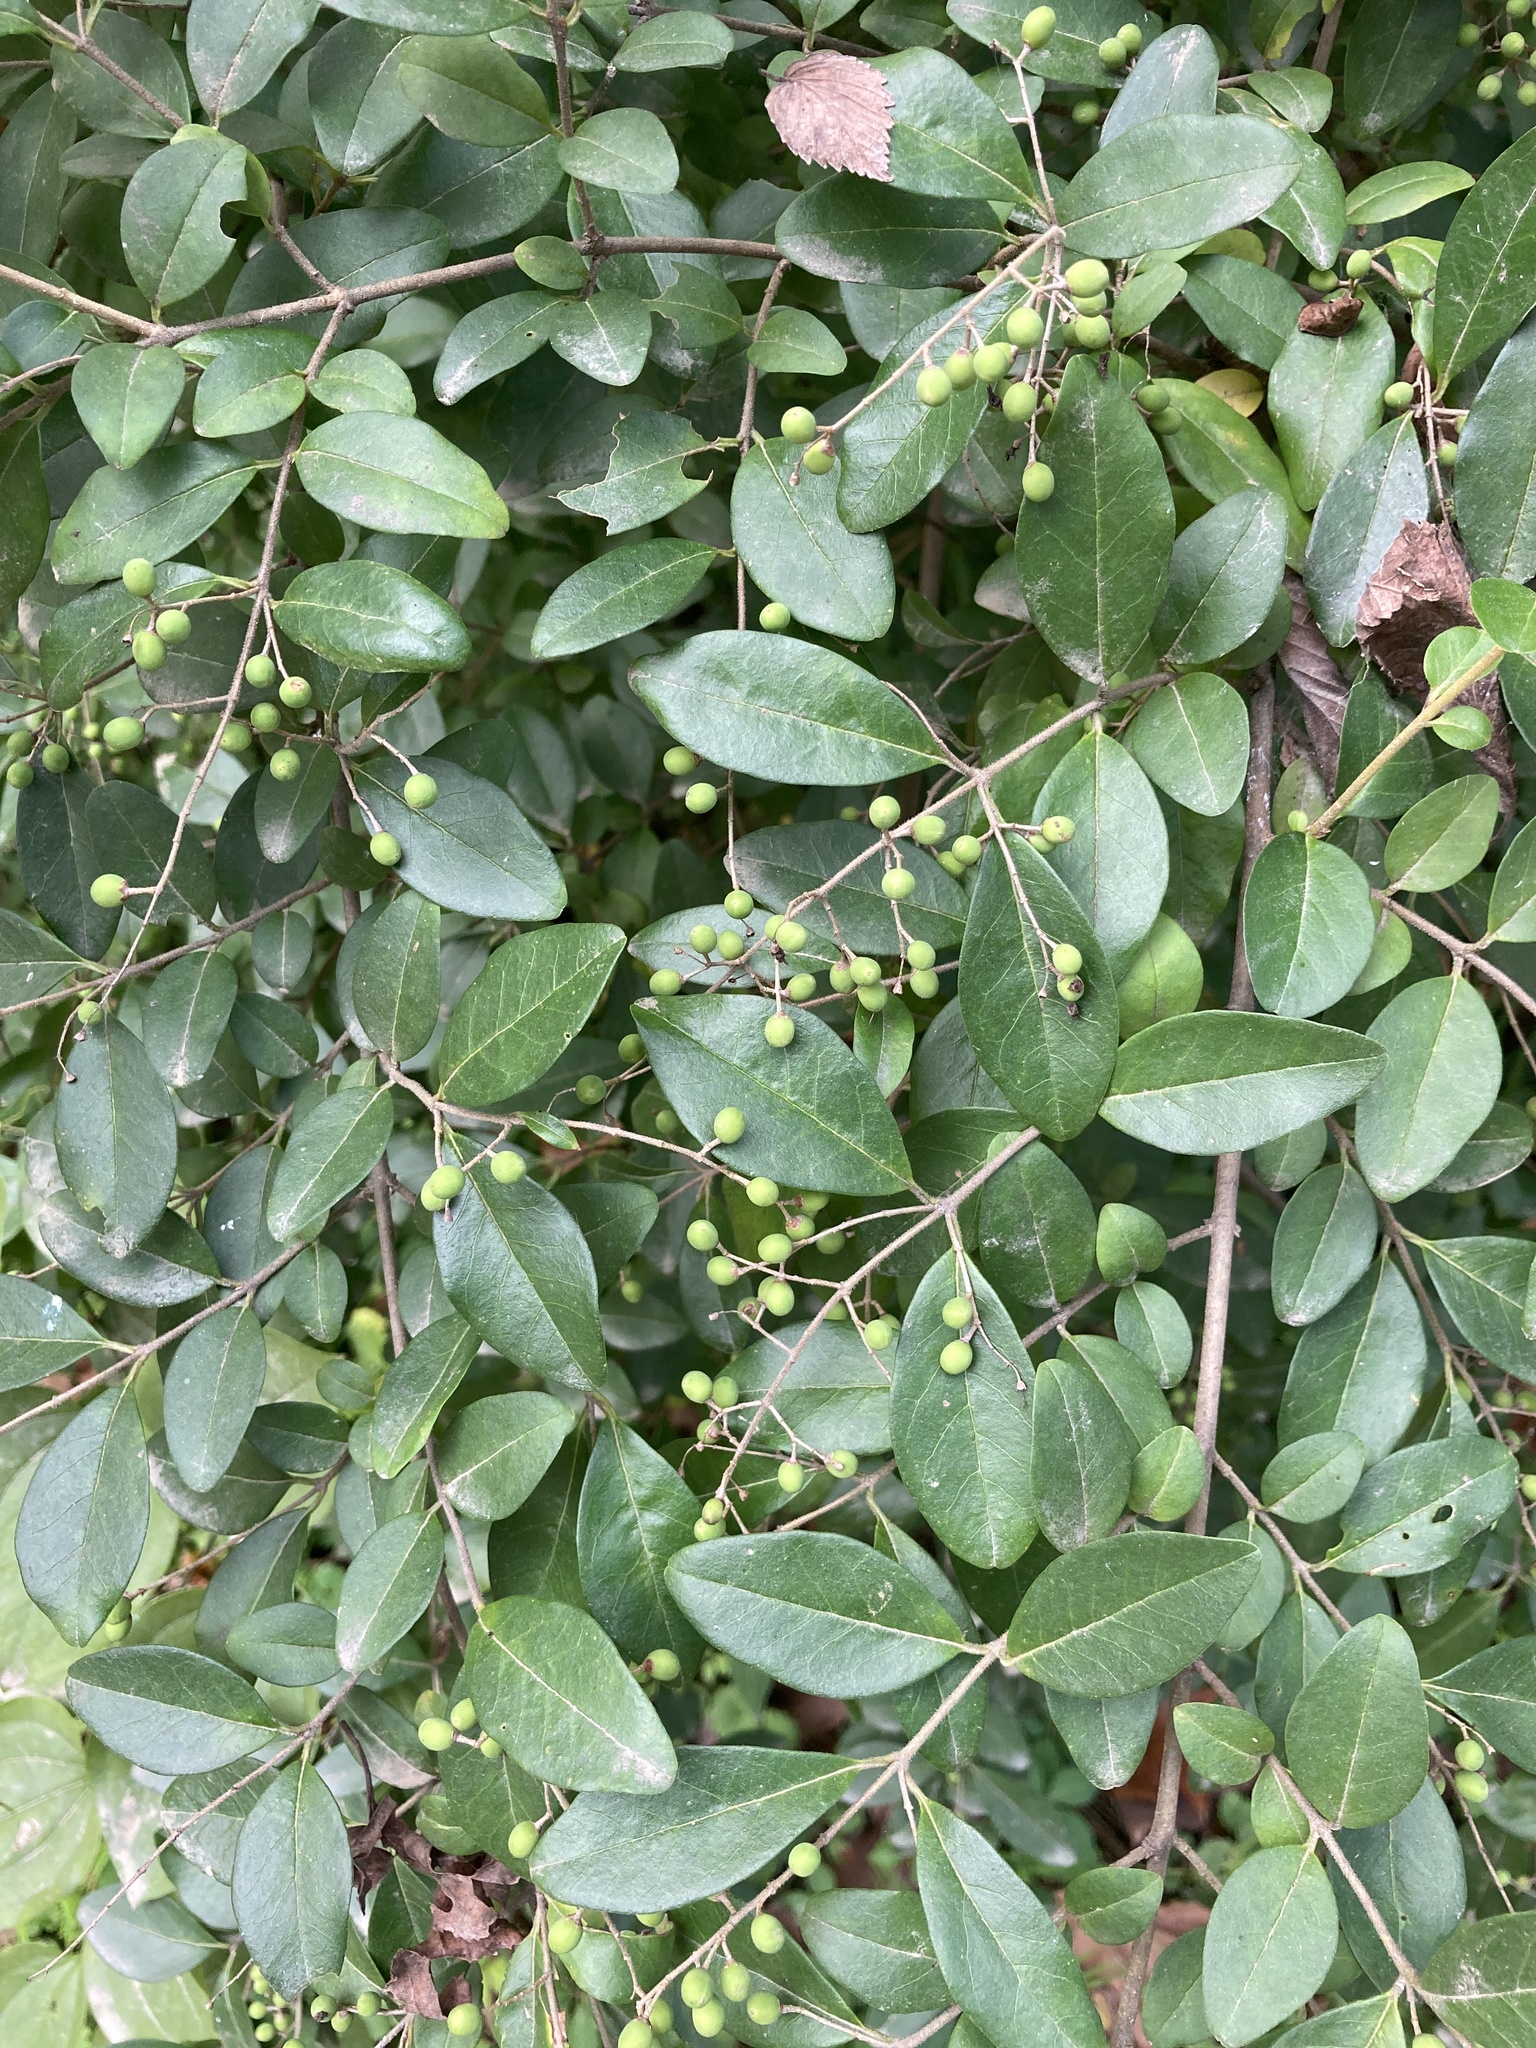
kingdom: Plantae
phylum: Tracheophyta
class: Magnoliopsida
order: Lamiales
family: Oleaceae
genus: Ligustrum
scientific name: Ligustrum sinense
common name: Chinese privet
